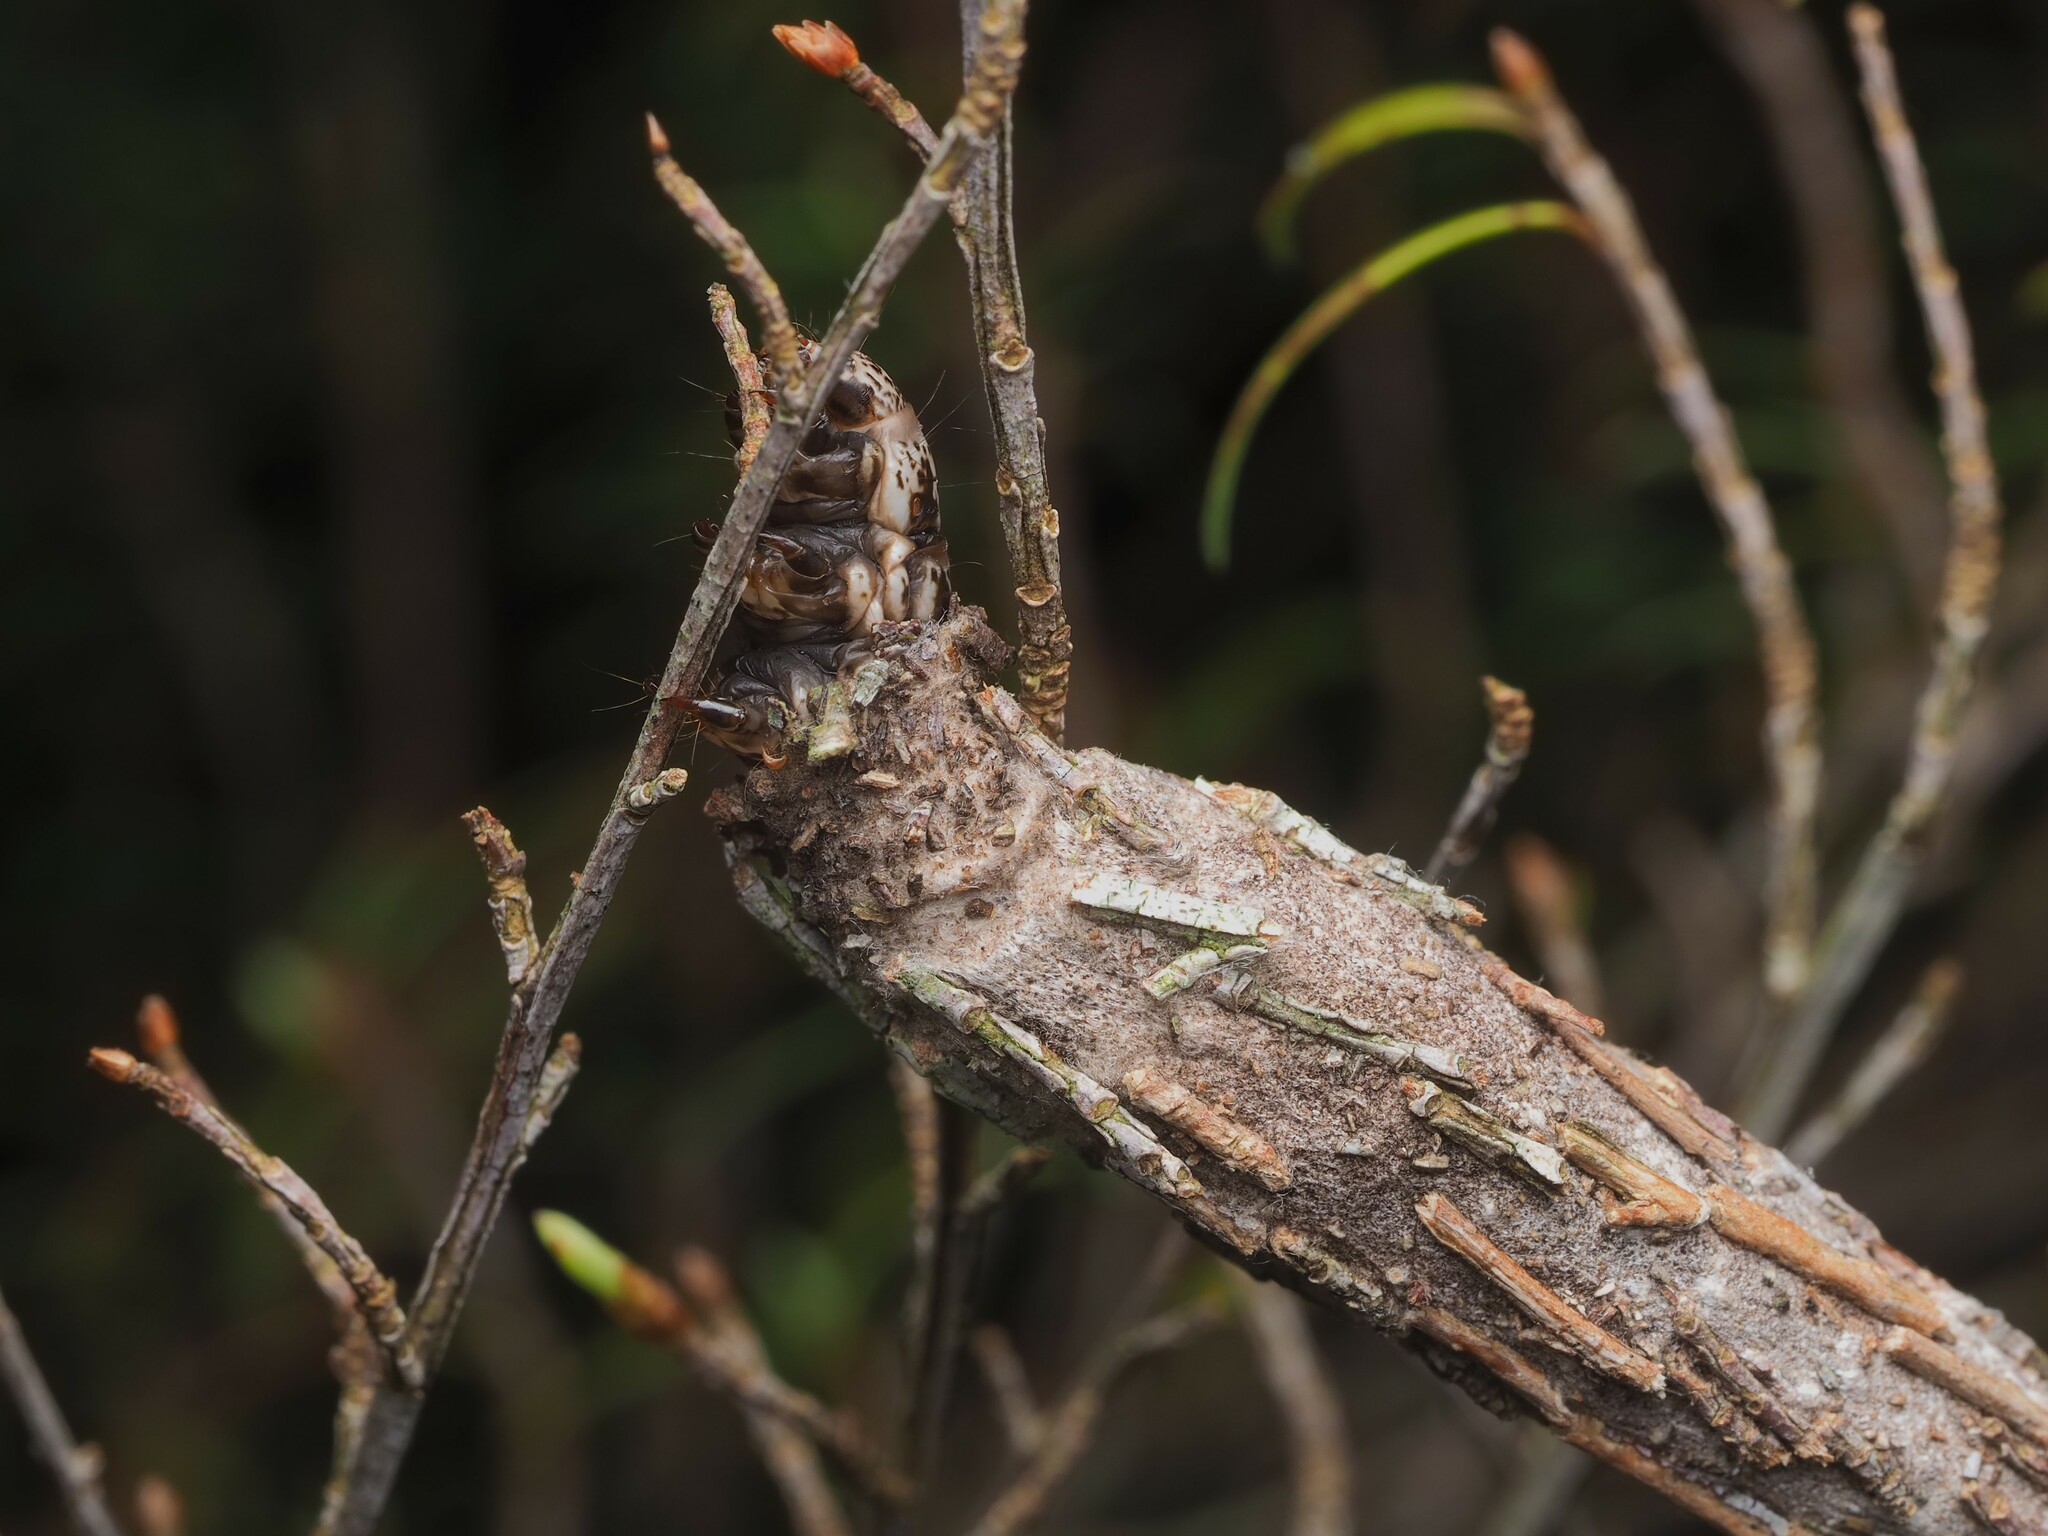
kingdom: Animalia
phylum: Arthropoda
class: Insecta
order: Lepidoptera
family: Psychidae
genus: Liothula
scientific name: Liothula omnivora
